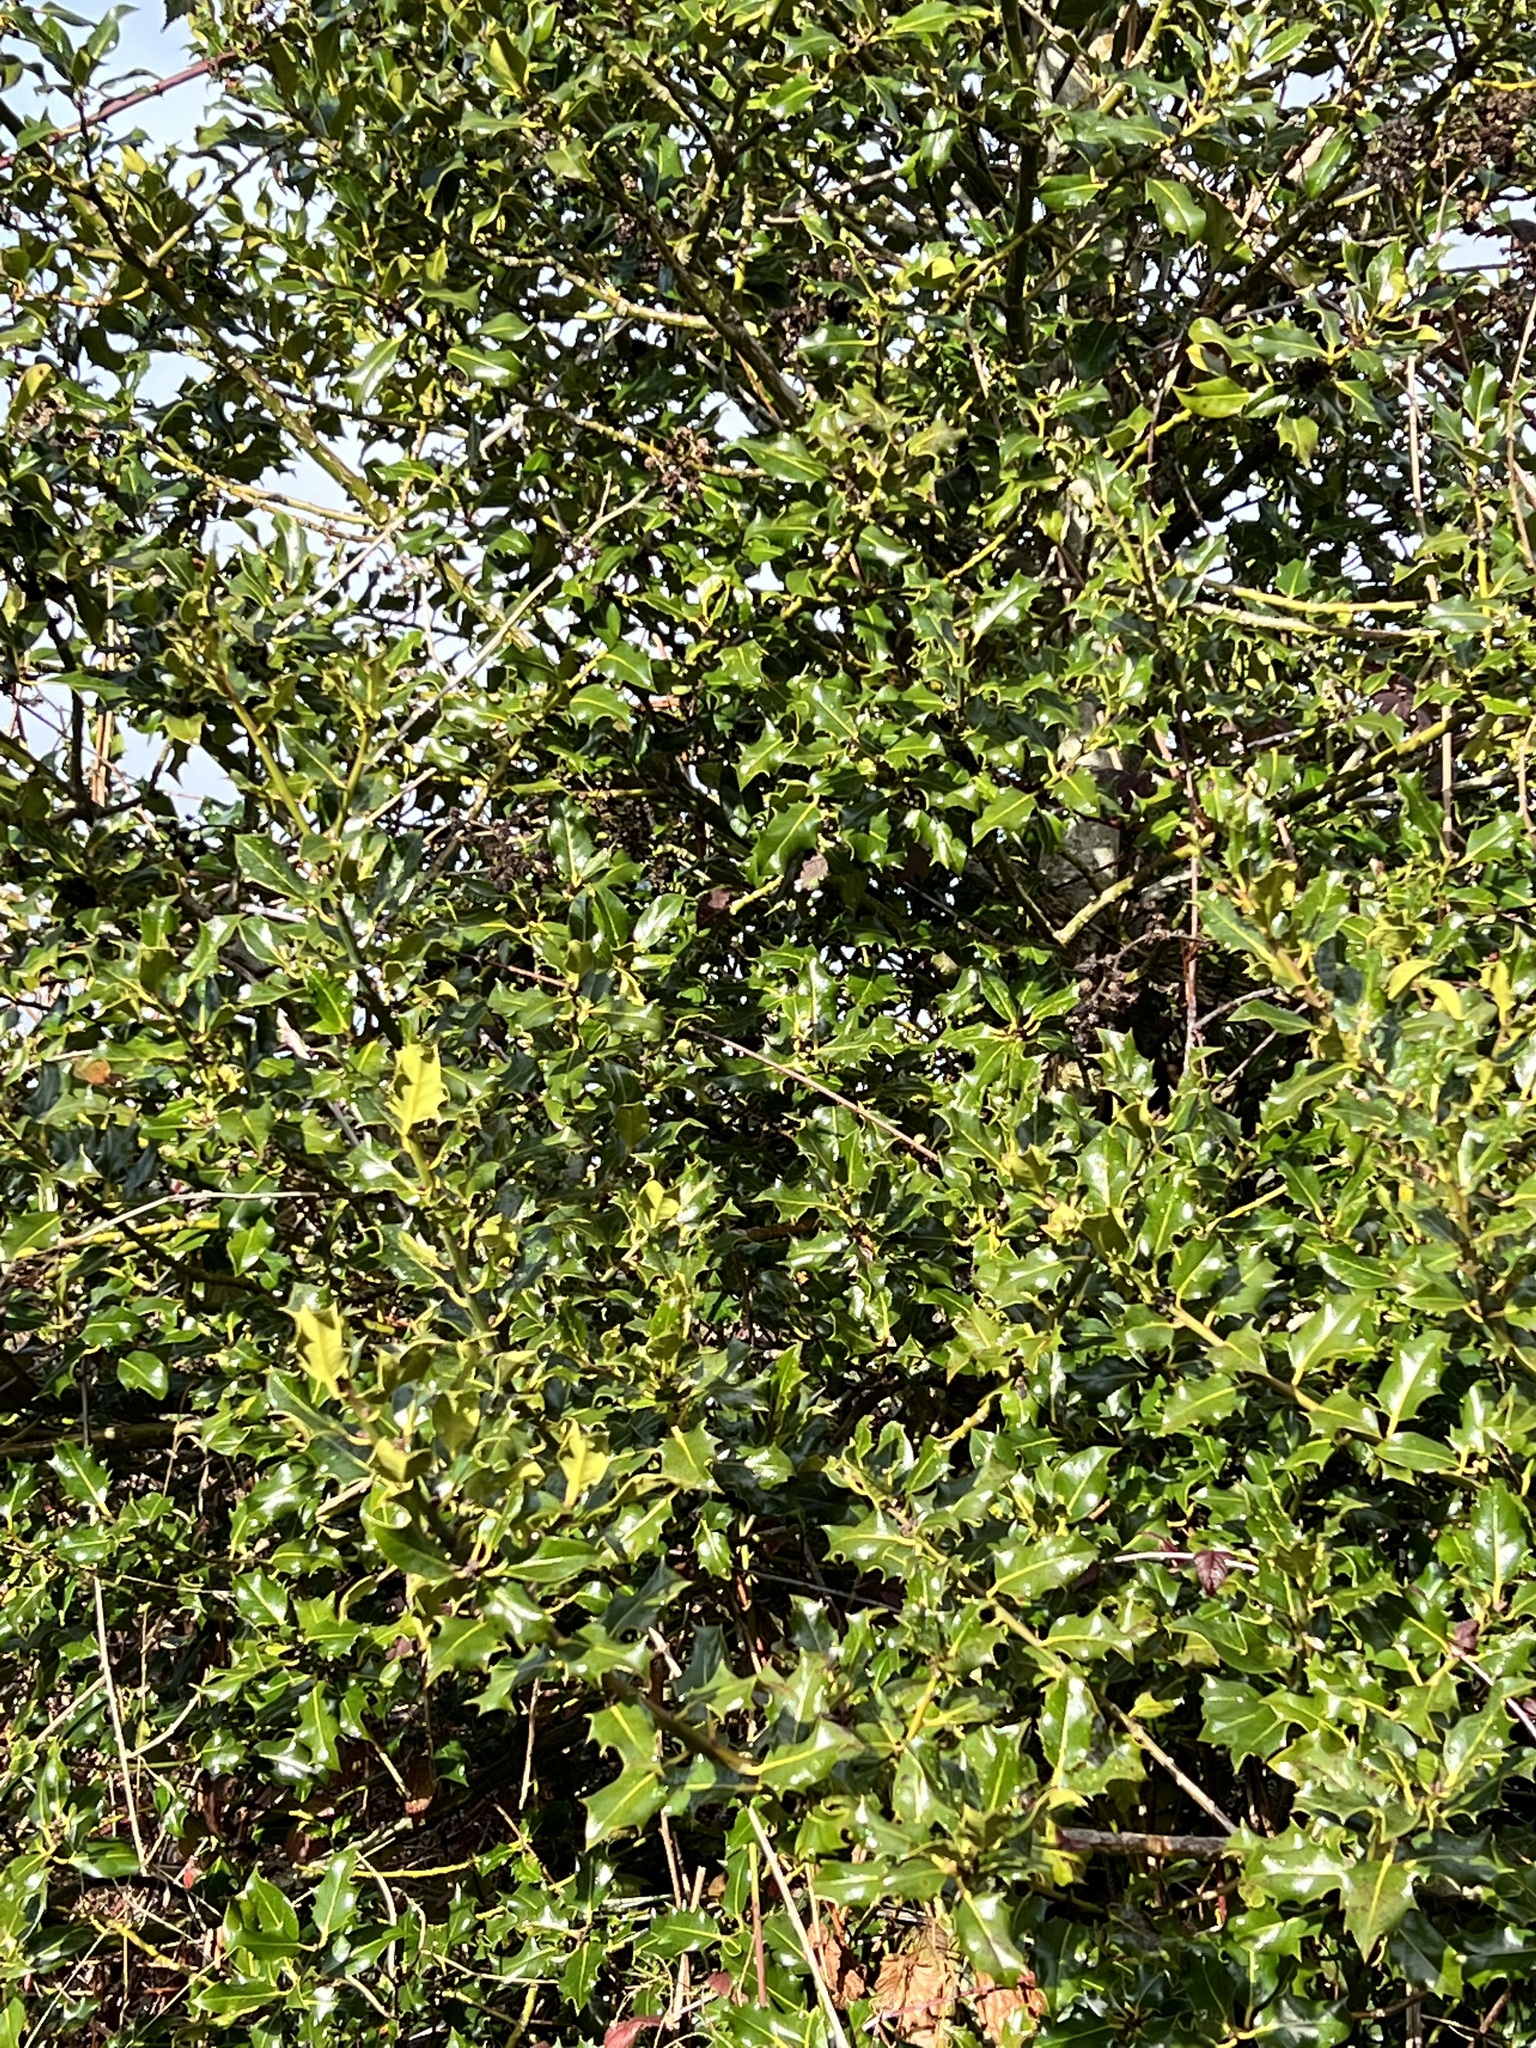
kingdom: Plantae
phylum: Tracheophyta
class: Magnoliopsida
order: Aquifoliales
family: Aquifoliaceae
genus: Ilex
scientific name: Ilex aquifolium
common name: English holly
